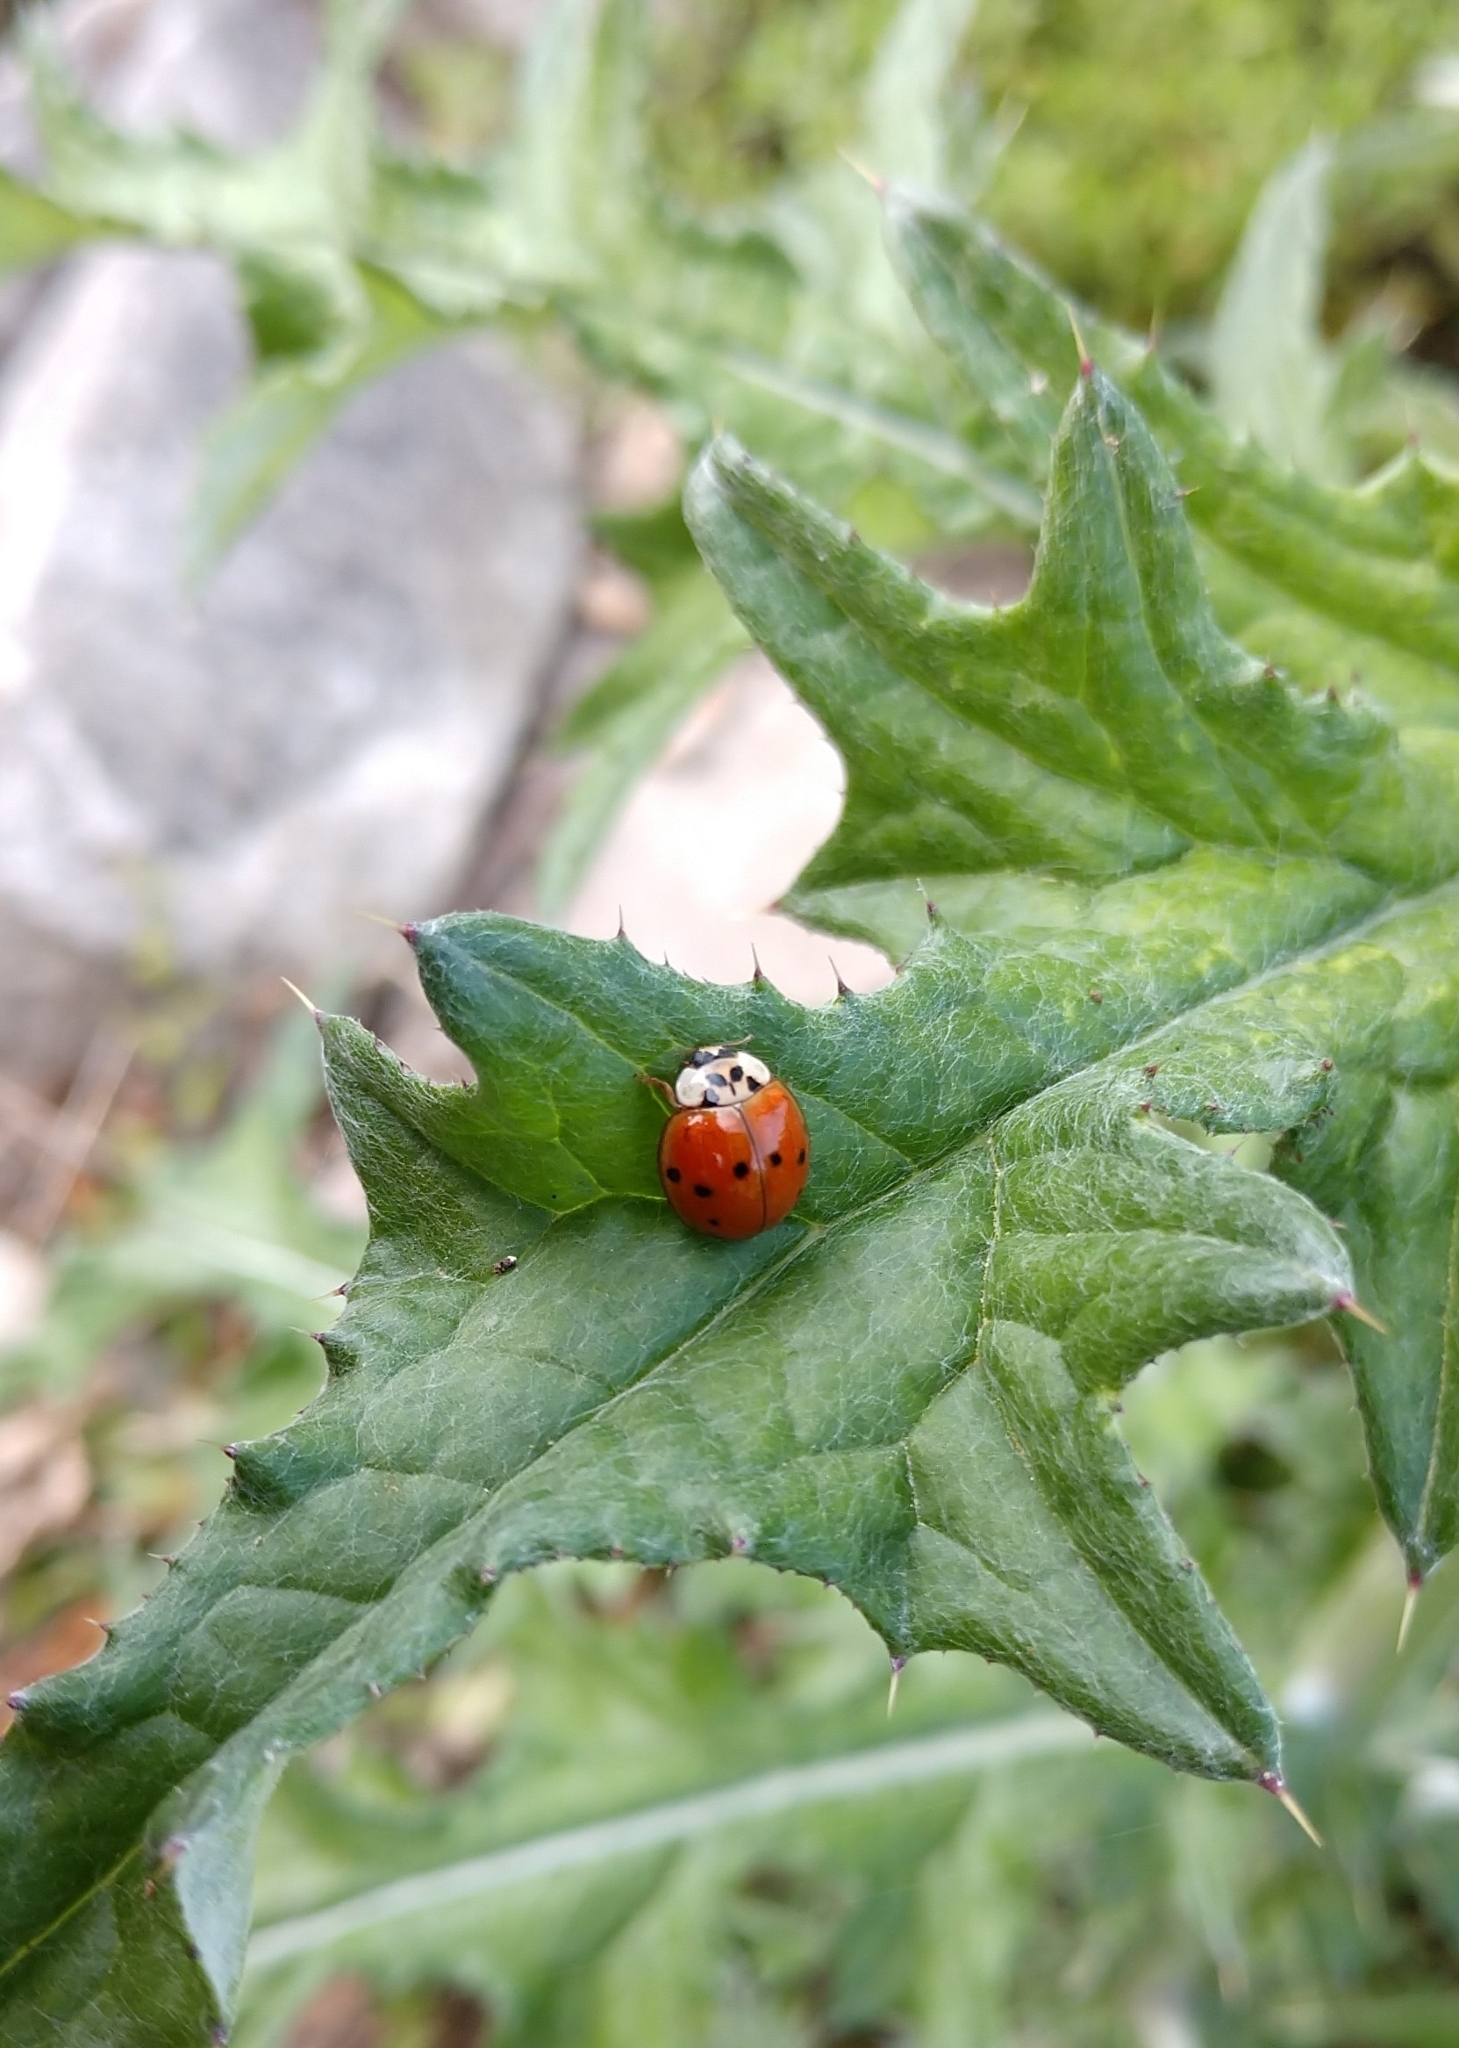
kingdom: Animalia
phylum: Arthropoda
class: Insecta
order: Coleoptera
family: Coccinellidae
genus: Harmonia
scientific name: Harmonia axyridis
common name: Harlequin ladybird
